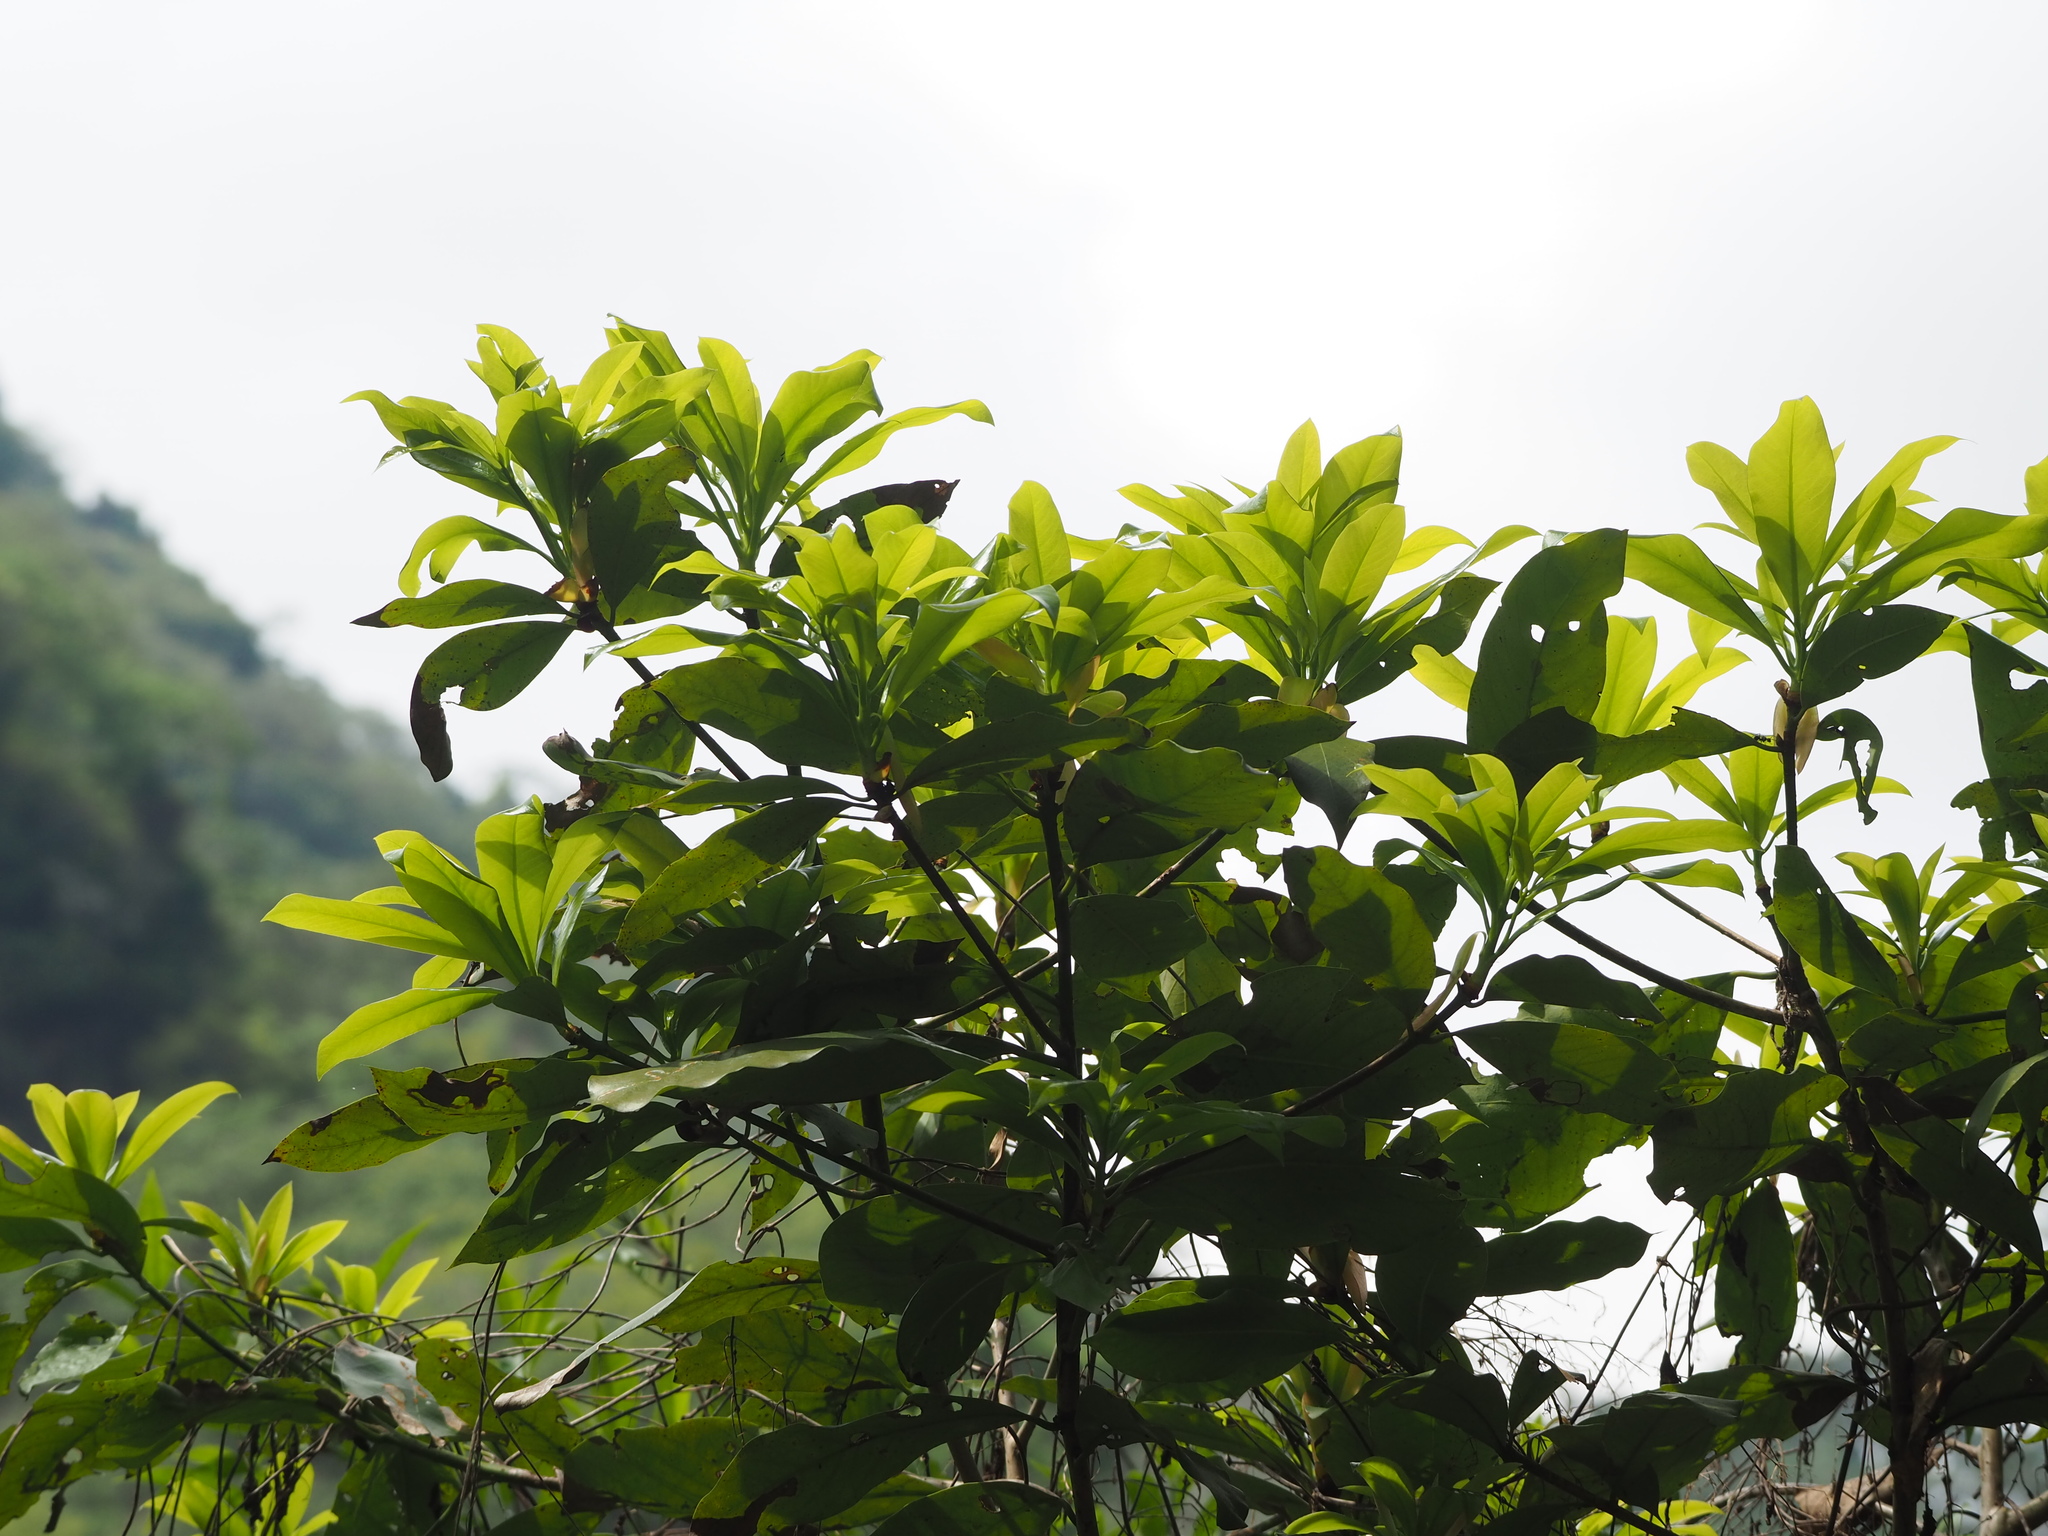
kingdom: Plantae
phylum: Tracheophyta
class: Magnoliopsida
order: Laurales
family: Lauraceae
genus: Machilus
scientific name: Machilus japonica
